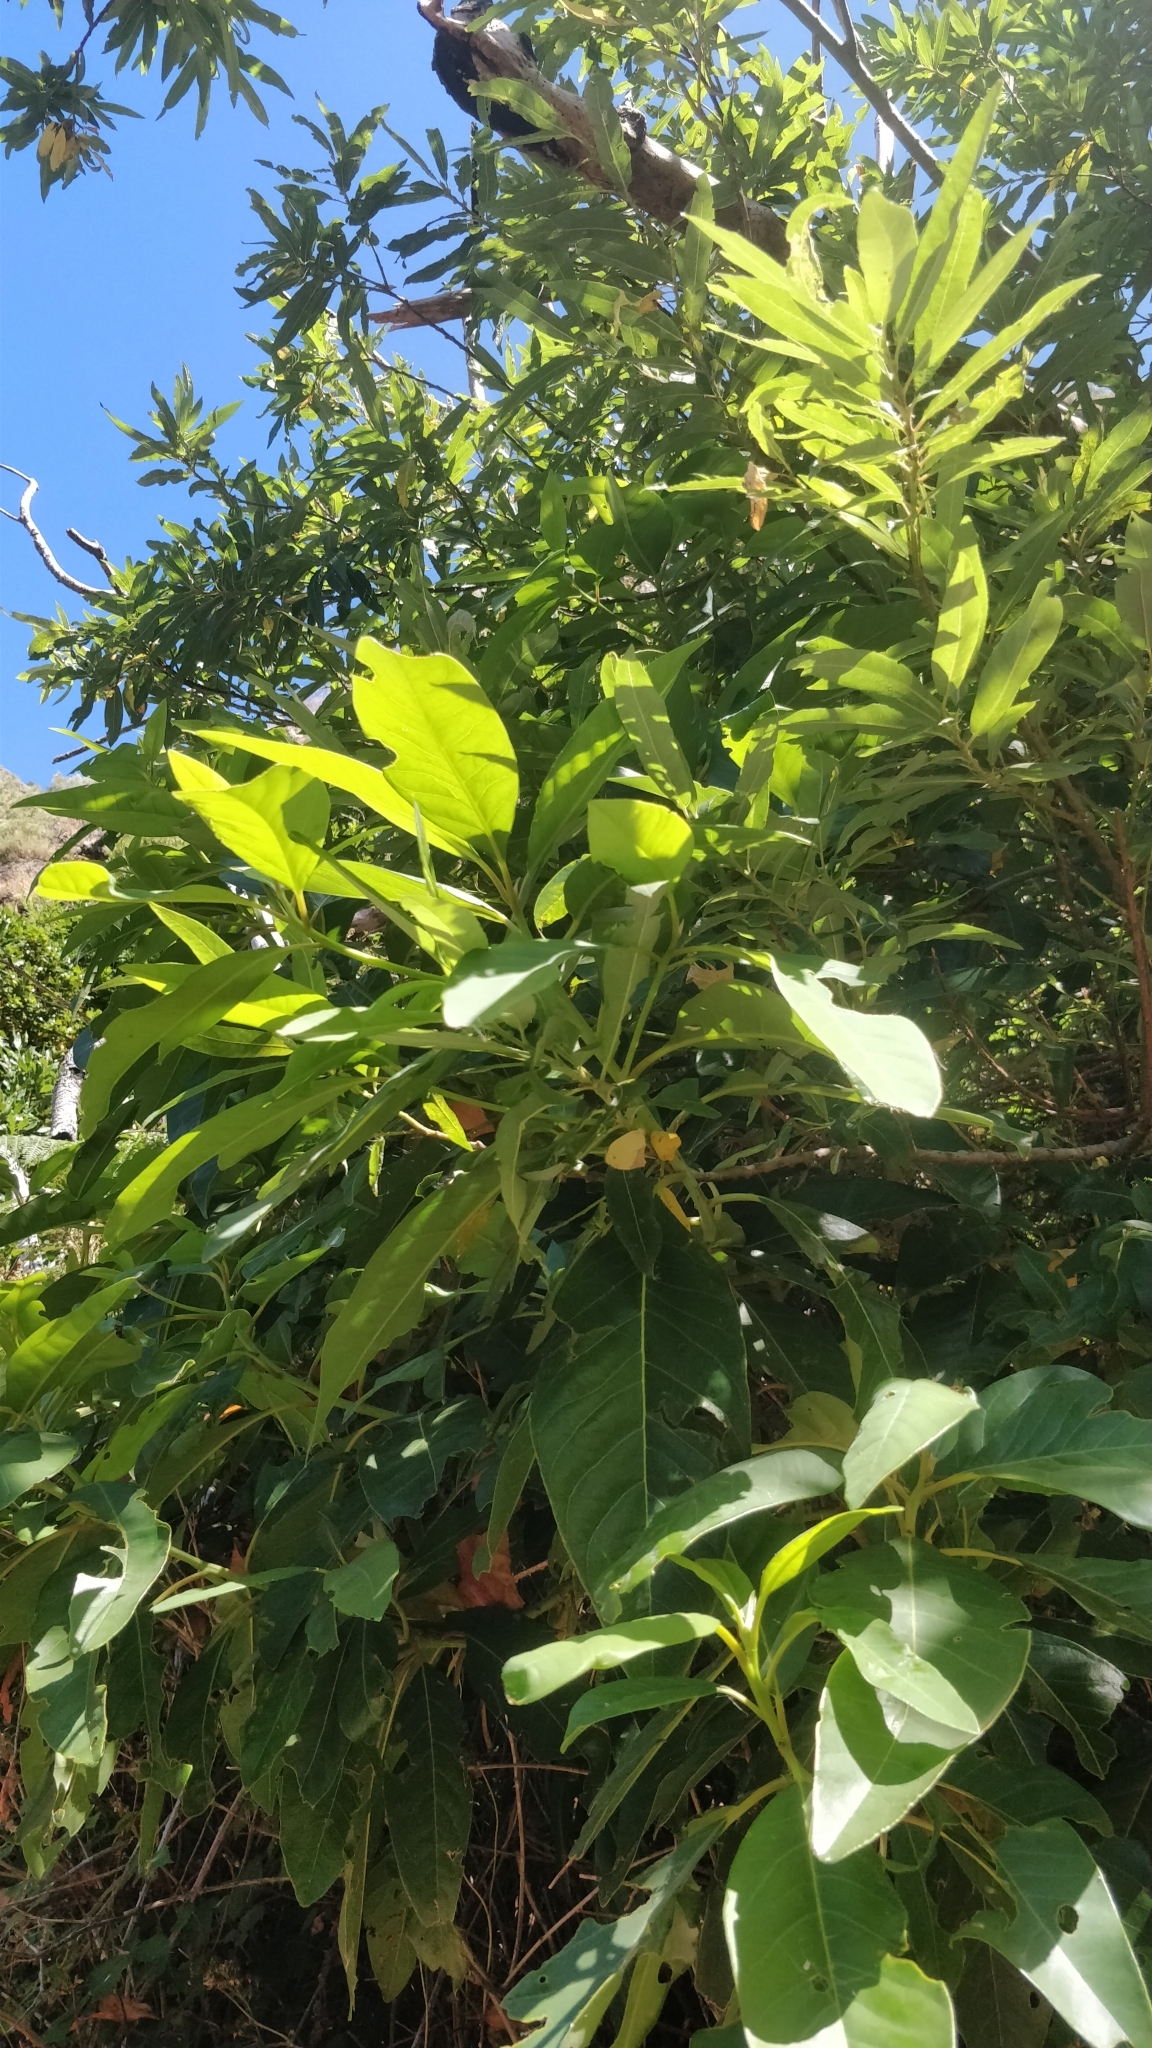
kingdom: Plantae
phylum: Tracheophyta
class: Magnoliopsida
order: Laurales
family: Lauraceae
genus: Persea
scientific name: Persea indica
